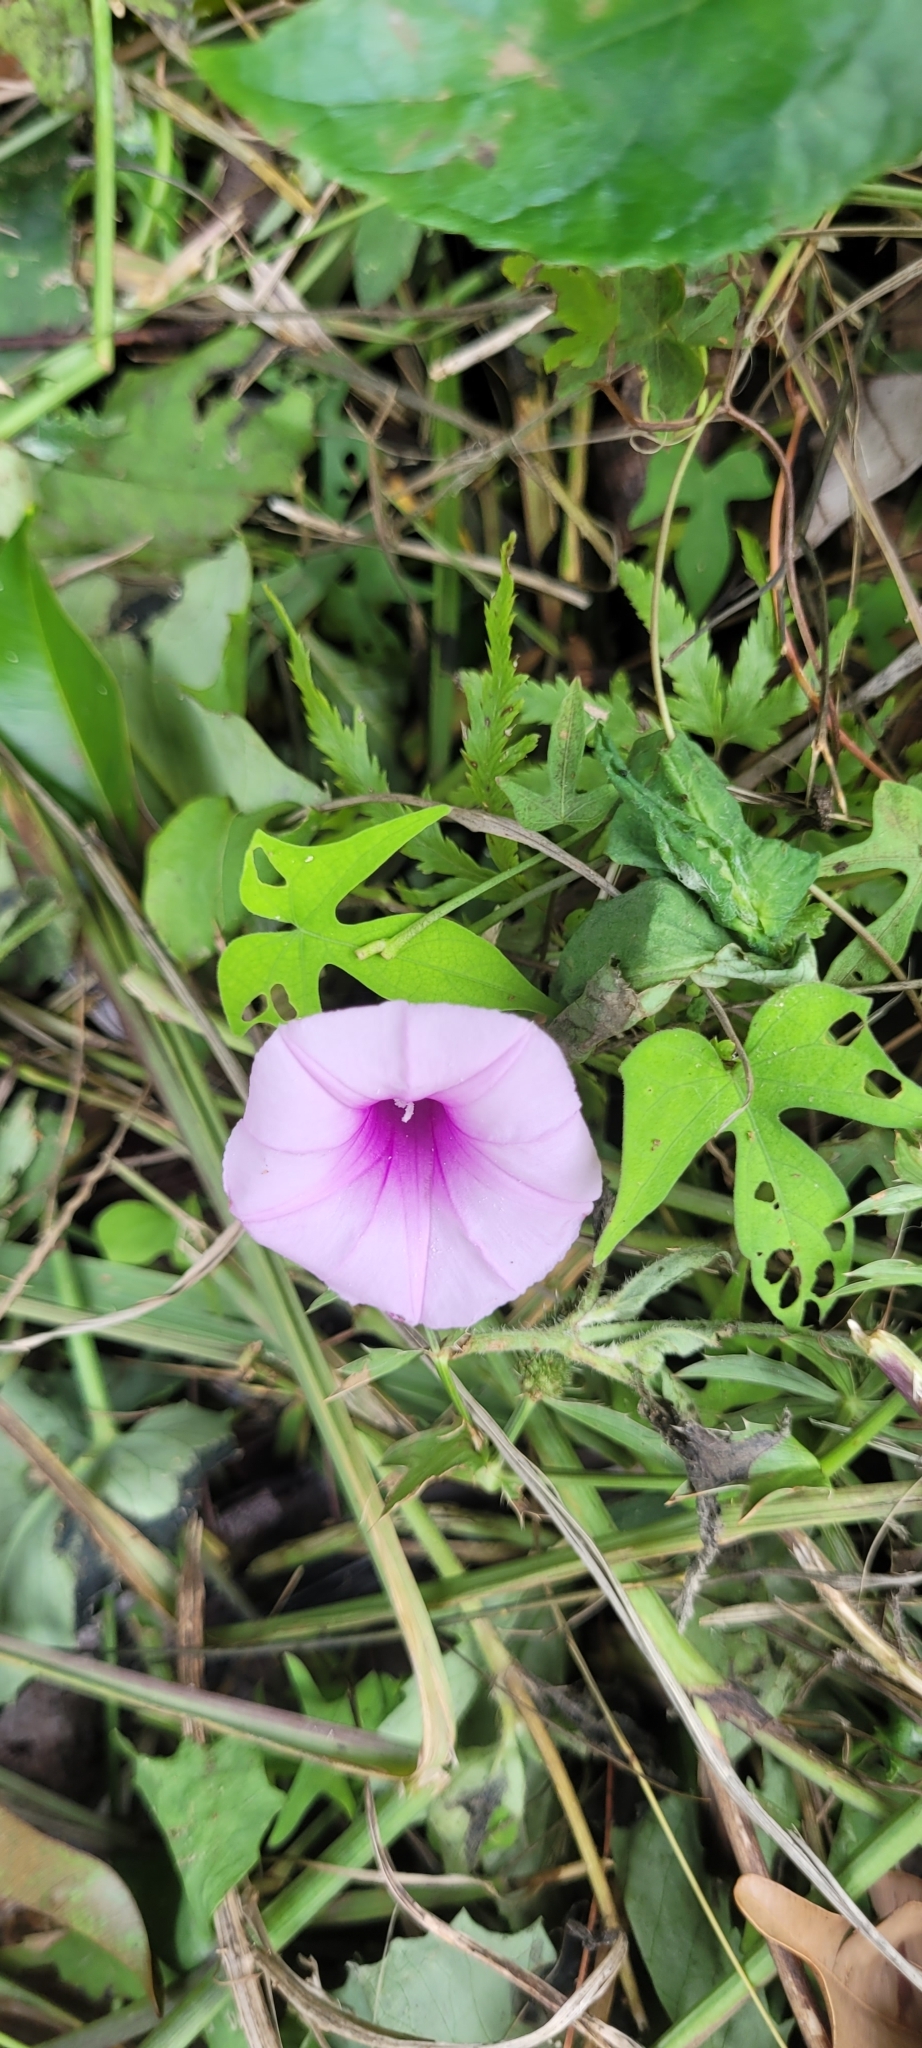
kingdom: Plantae
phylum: Tracheophyta
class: Magnoliopsida
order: Solanales
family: Convolvulaceae
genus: Ipomoea
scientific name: Ipomoea batatas
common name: Sweet-potato
